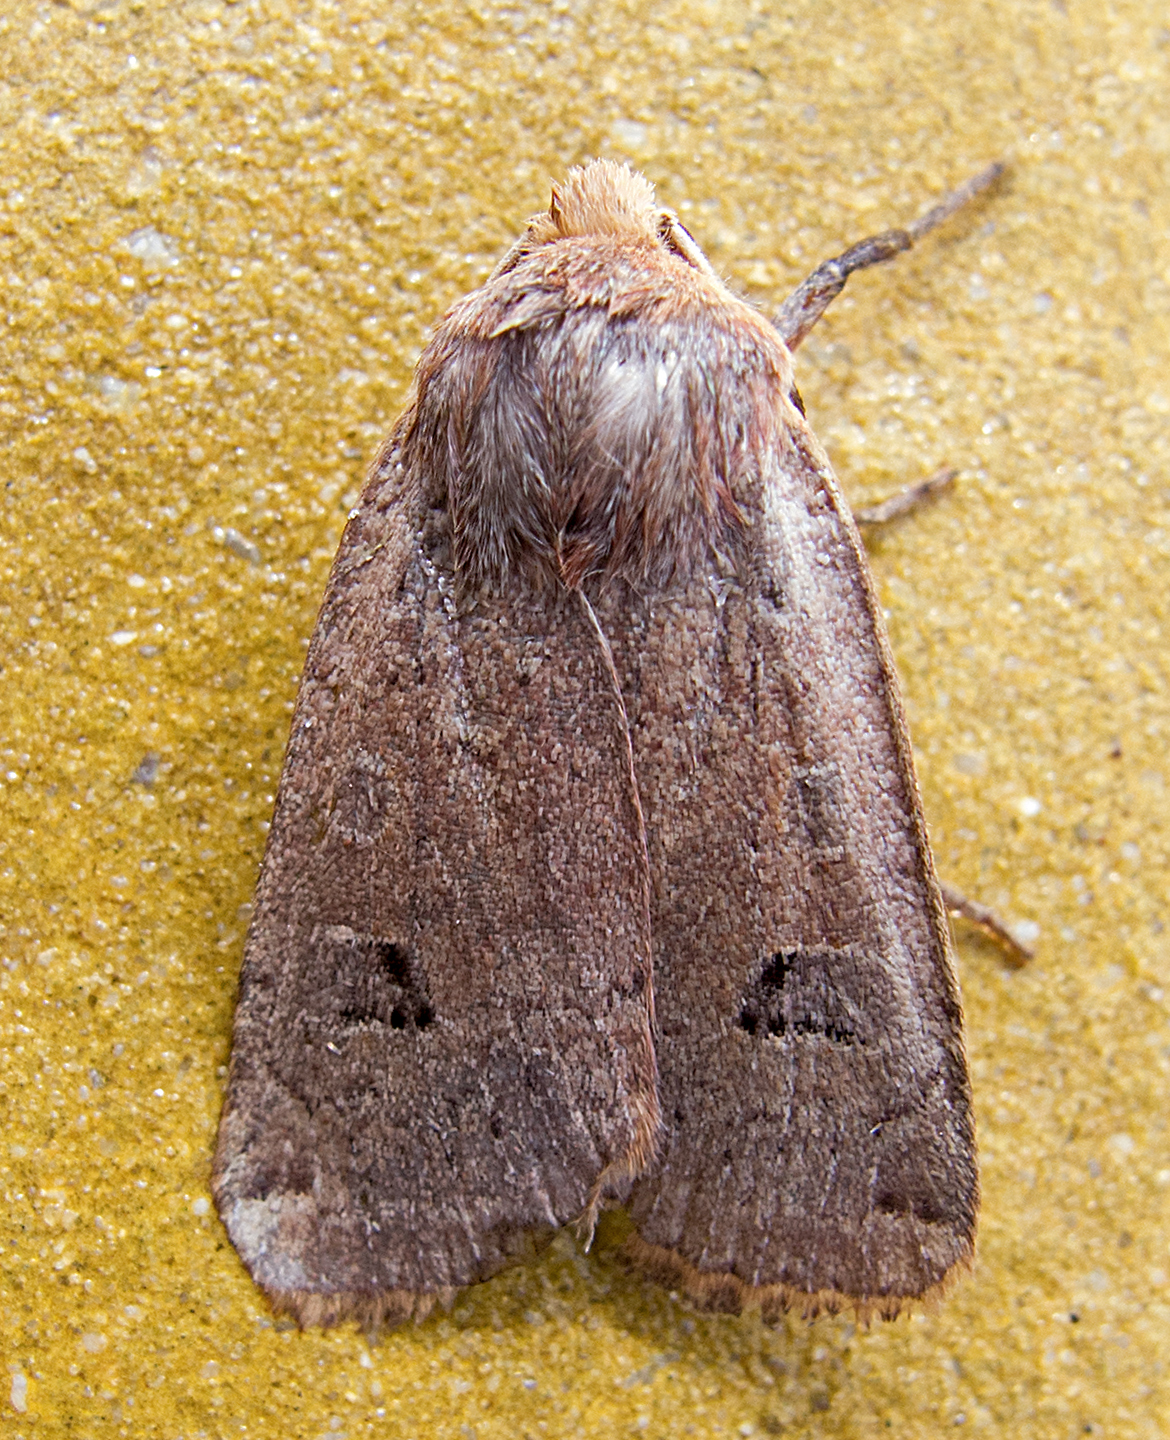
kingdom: Animalia
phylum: Arthropoda
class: Insecta
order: Lepidoptera
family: Noctuidae
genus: Conistra
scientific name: Conistra erythrocephala
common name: Red-headed chestnut
